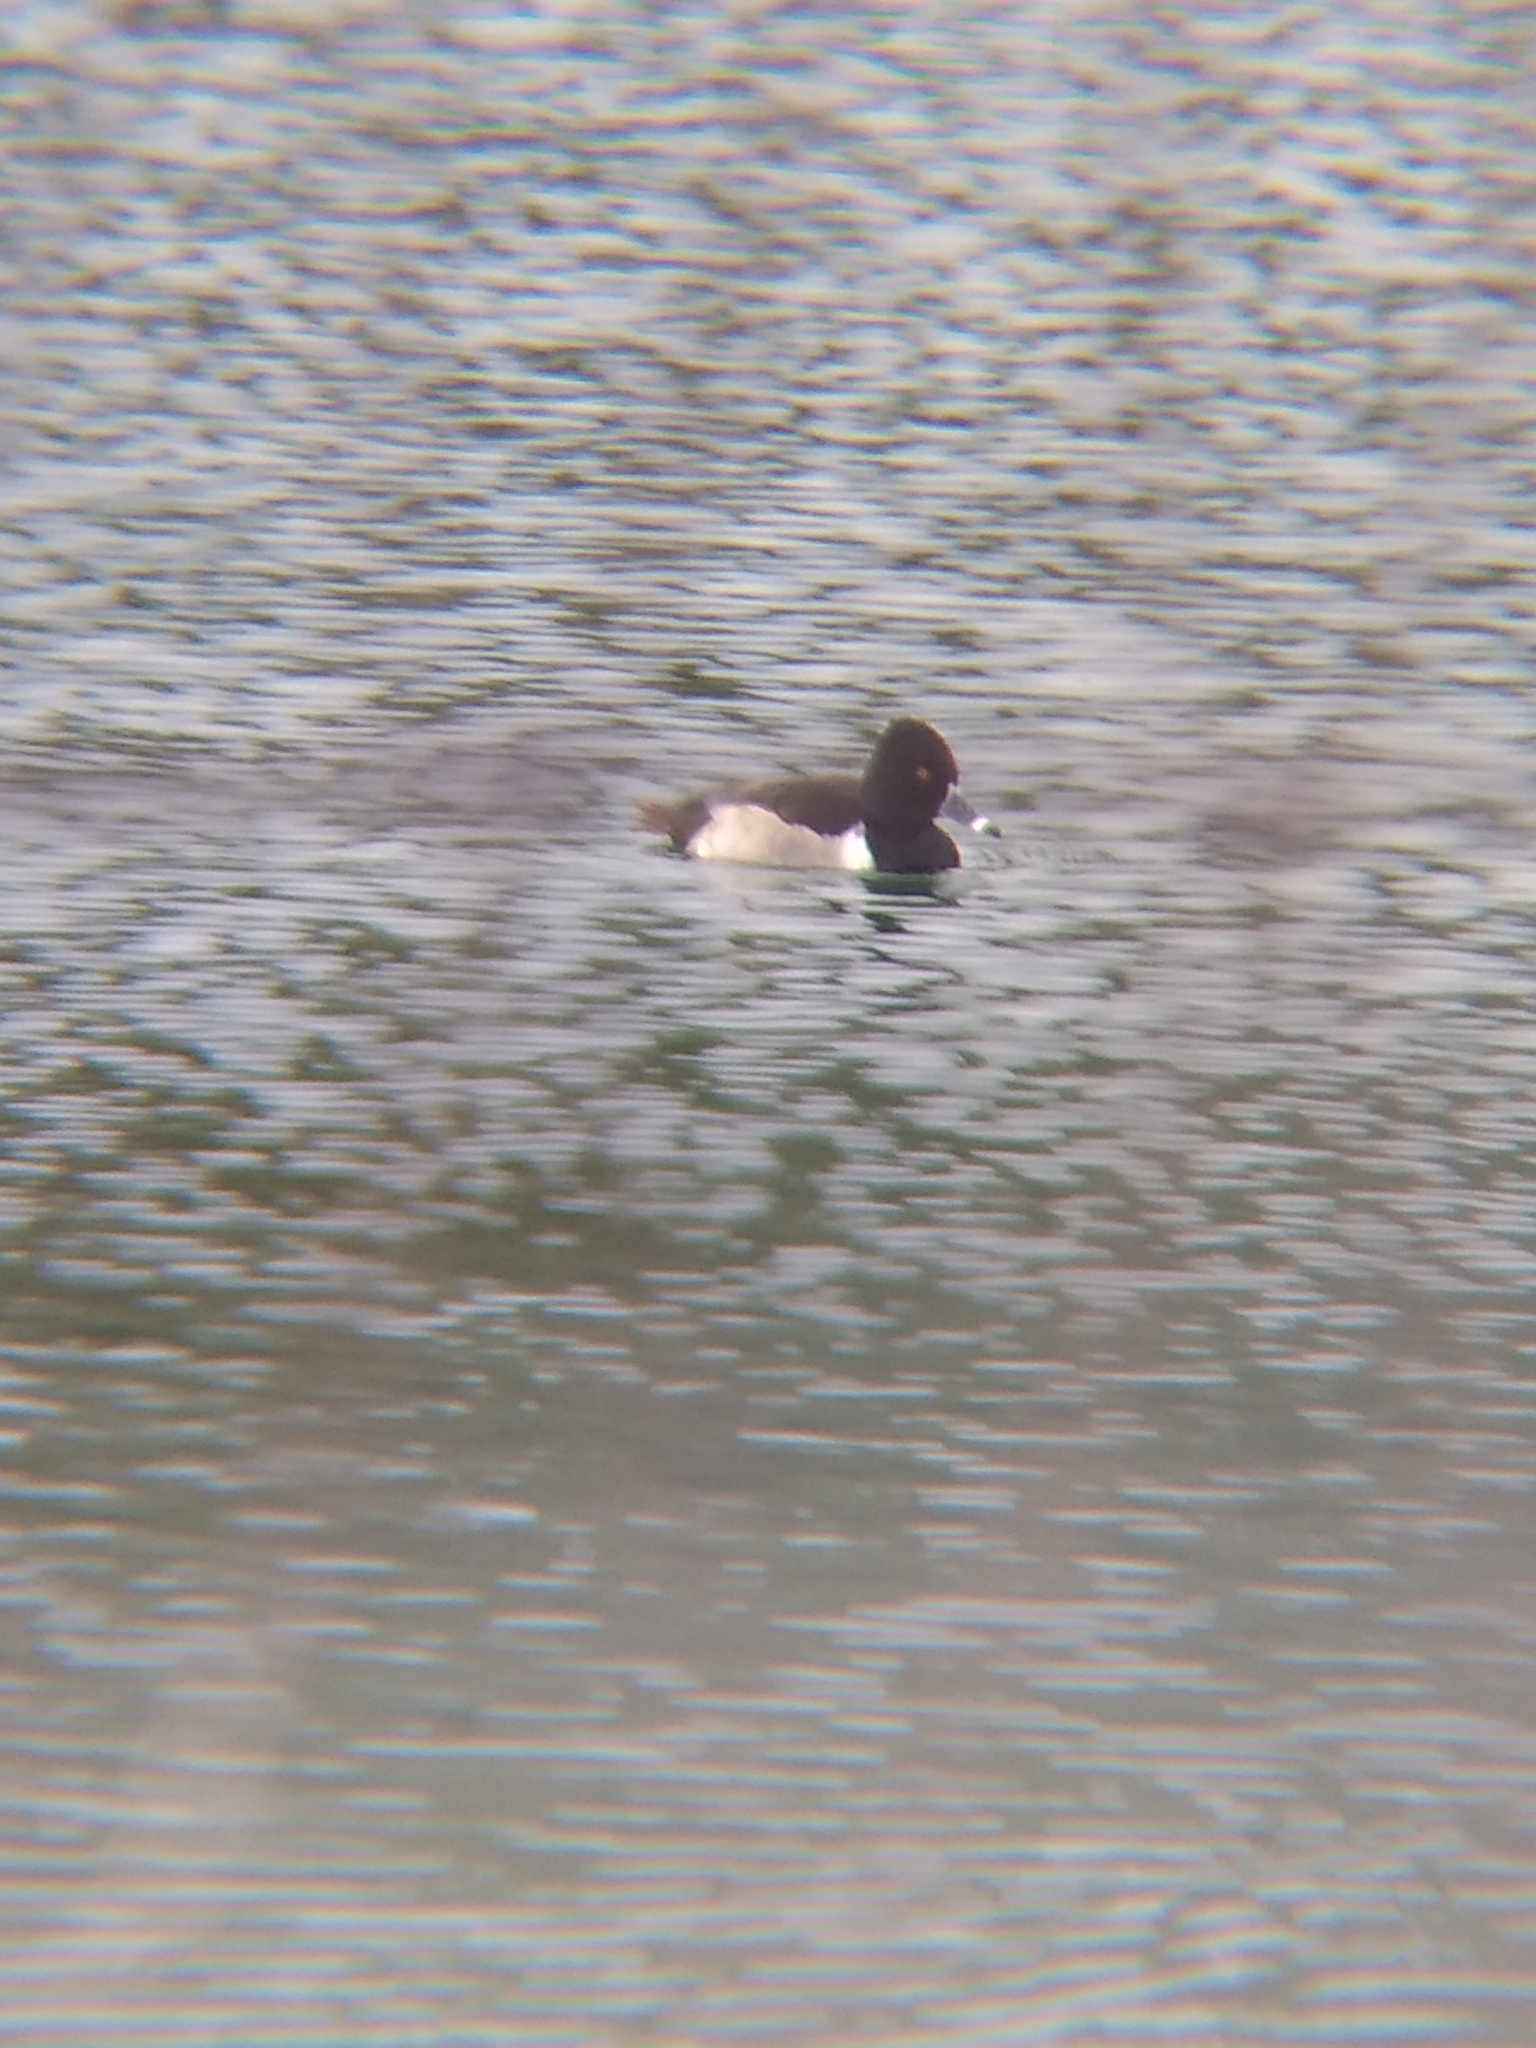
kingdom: Animalia
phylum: Chordata
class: Aves
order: Anseriformes
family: Anatidae
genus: Aythya
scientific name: Aythya collaris
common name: Ring-necked duck
